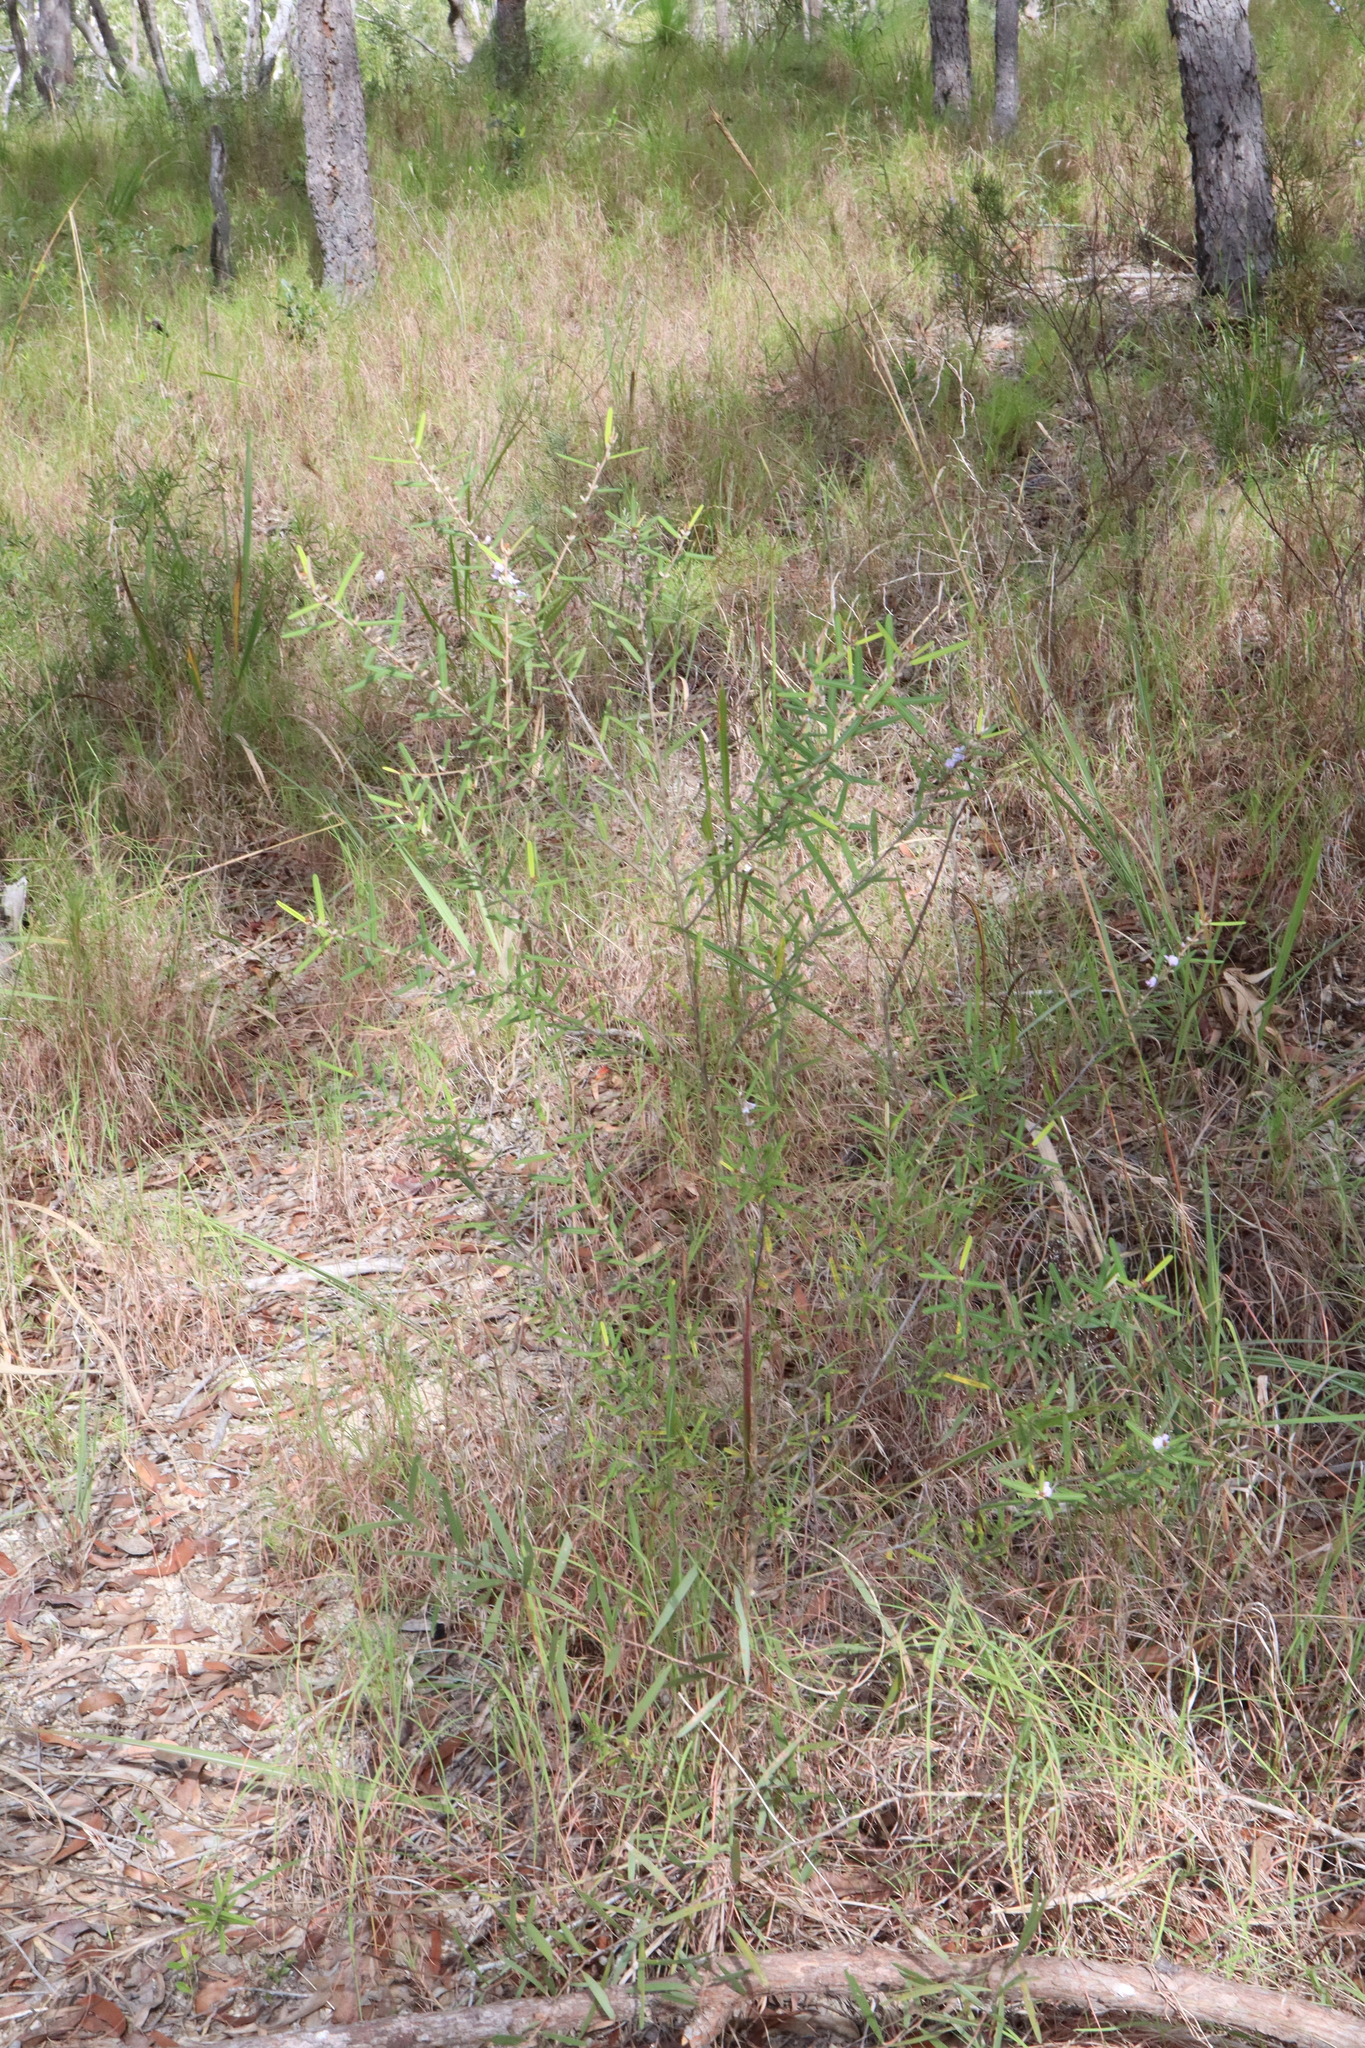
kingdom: Plantae
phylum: Tracheophyta
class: Magnoliopsida
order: Fabales
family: Fabaceae
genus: Hovea
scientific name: Hovea densivellosa
